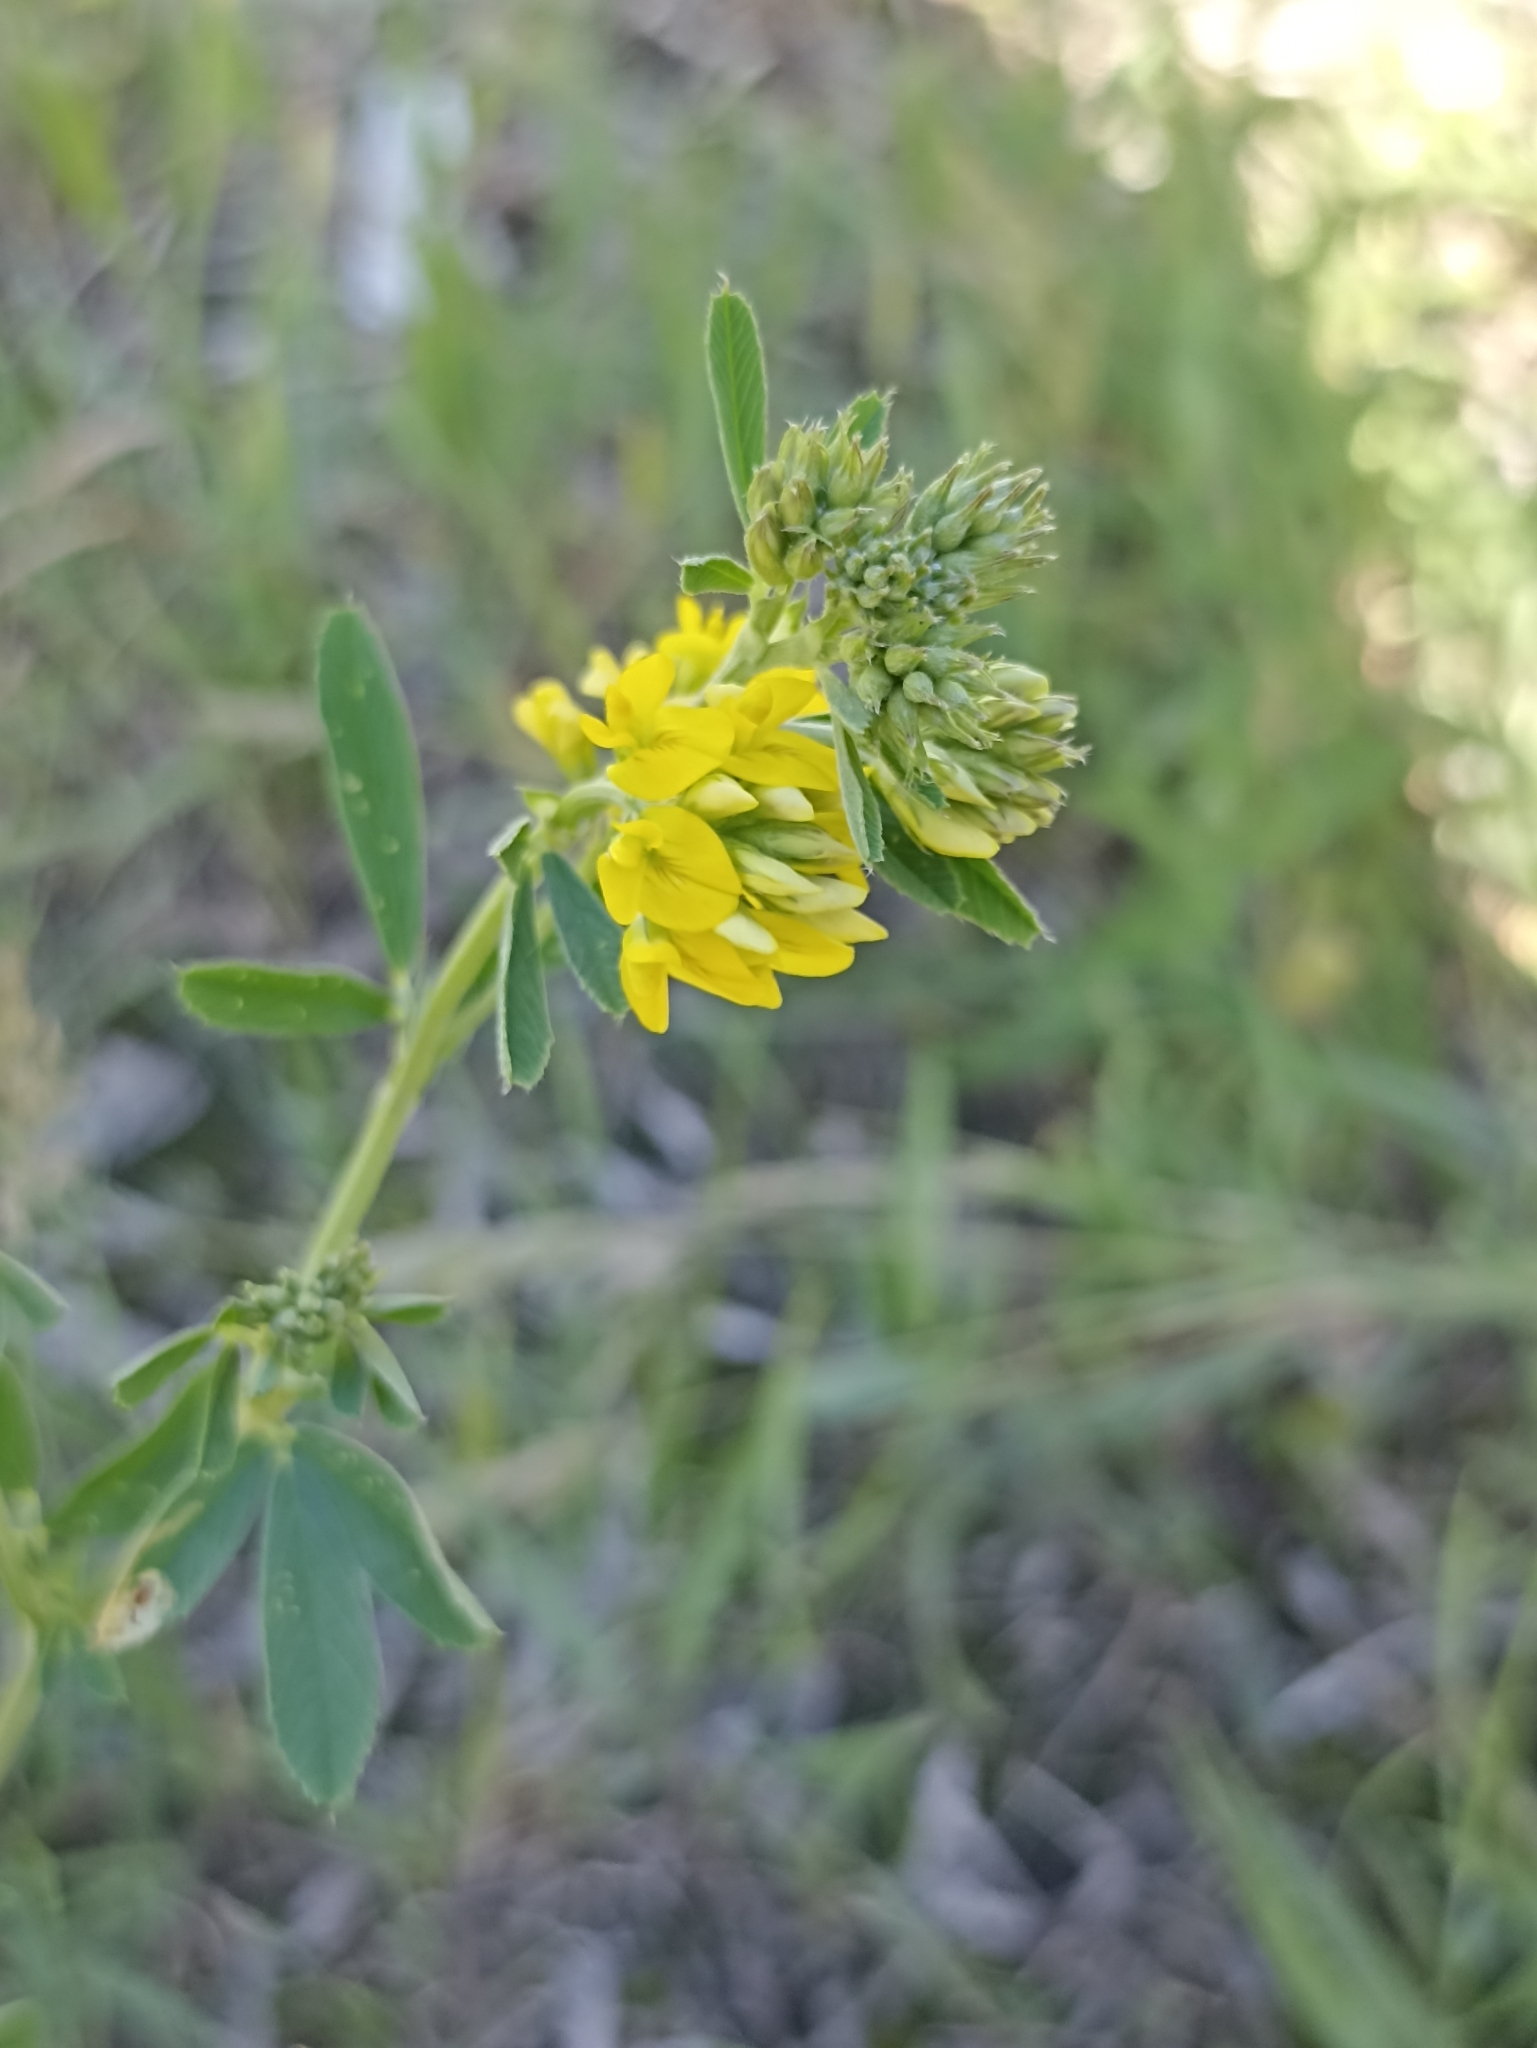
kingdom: Plantae
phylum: Tracheophyta
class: Magnoliopsida
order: Fabales
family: Fabaceae
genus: Medicago
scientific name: Medicago falcata
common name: Sickle medick
